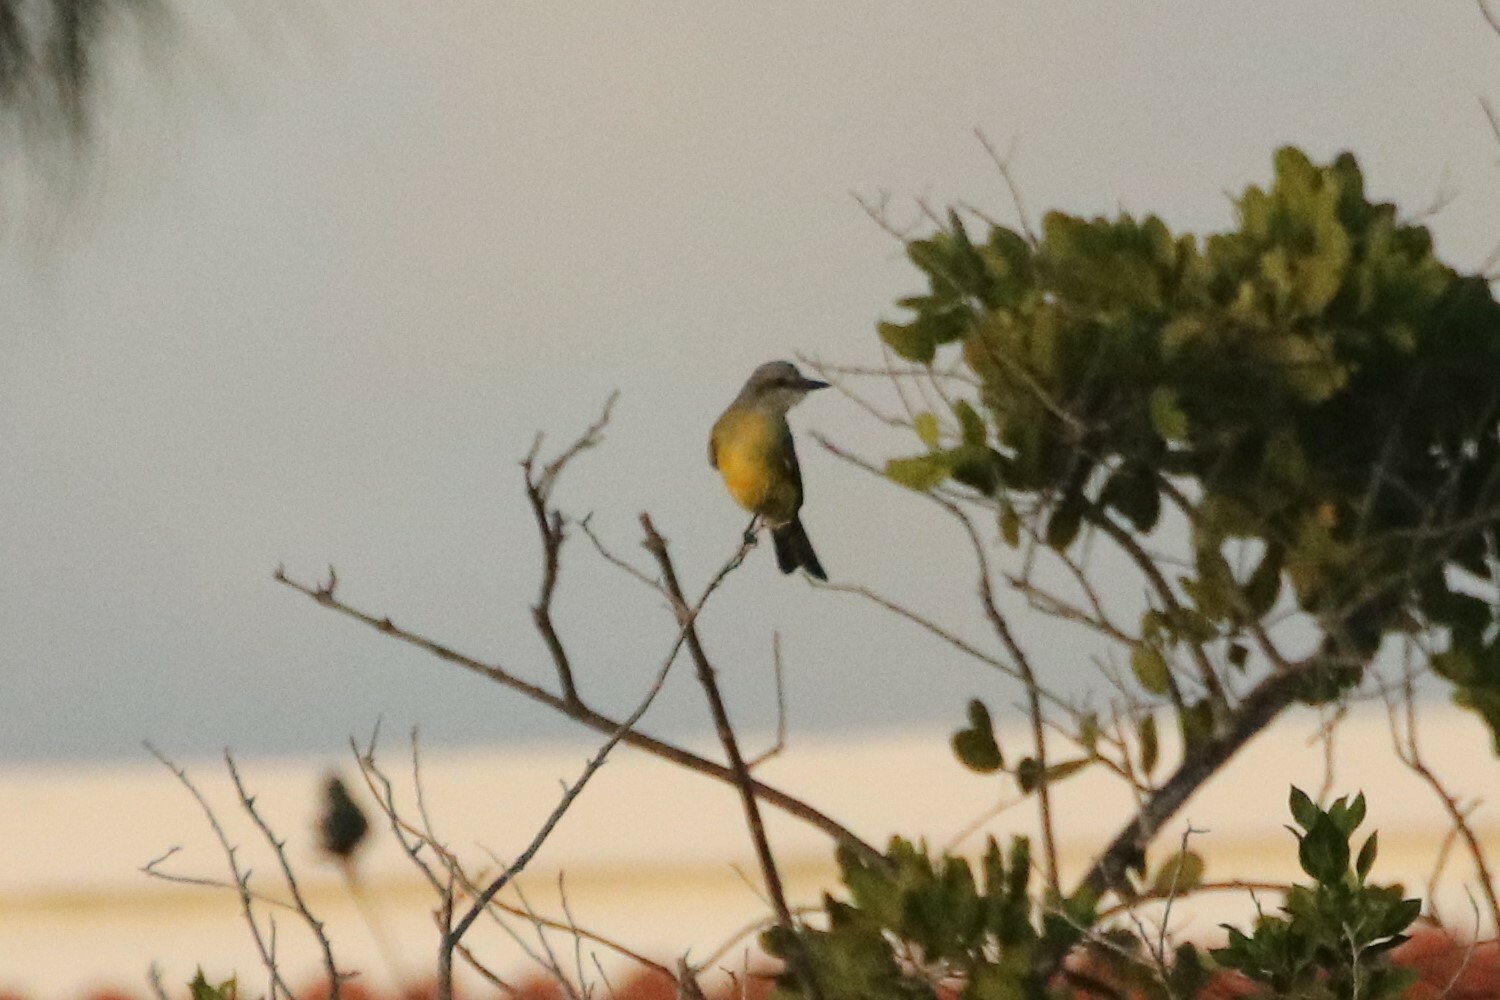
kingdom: Animalia
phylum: Chordata
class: Aves
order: Passeriformes
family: Tyrannidae
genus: Tyrannus
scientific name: Tyrannus melancholicus
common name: Tropical kingbird
